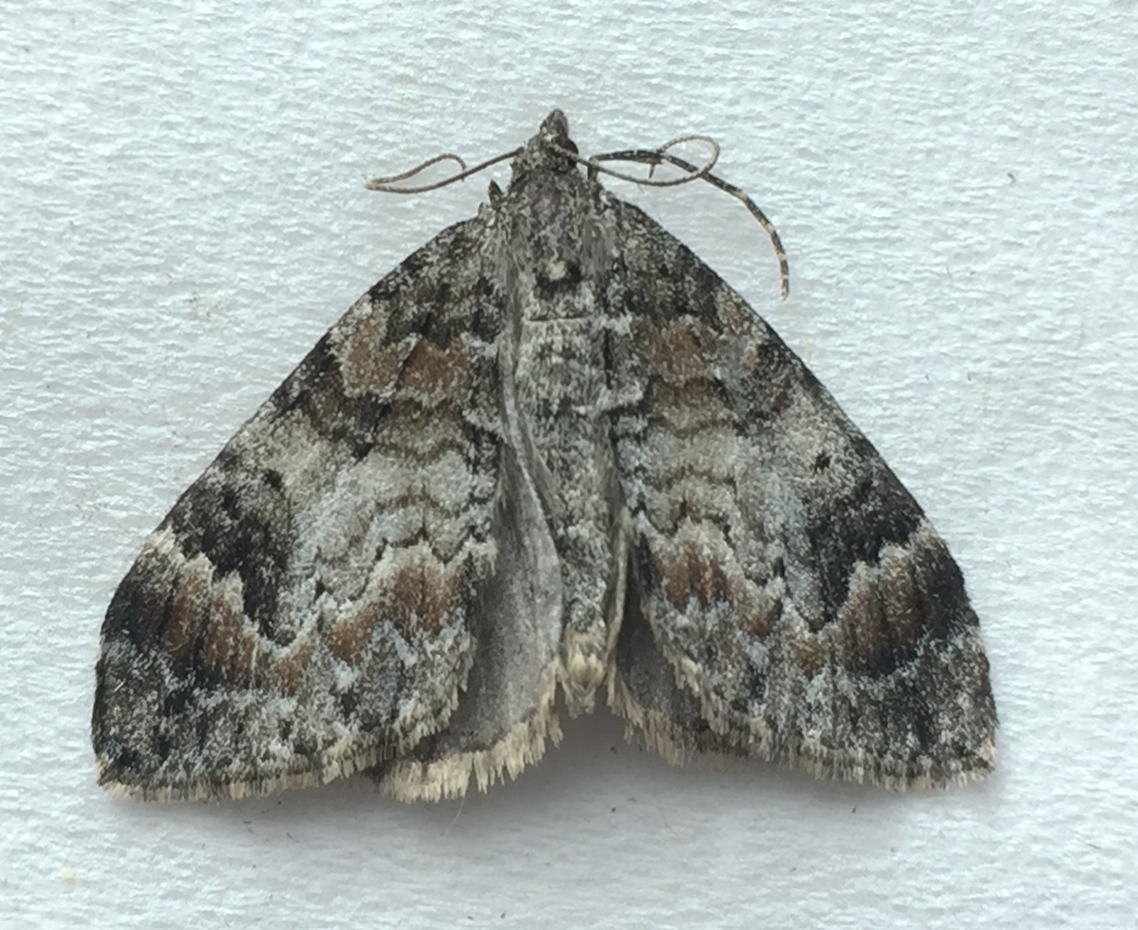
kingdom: Animalia
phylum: Arthropoda
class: Insecta
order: Lepidoptera
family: Geometridae
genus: Dysstroma
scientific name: Dysstroma citrata
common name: Dark marbled carpet
